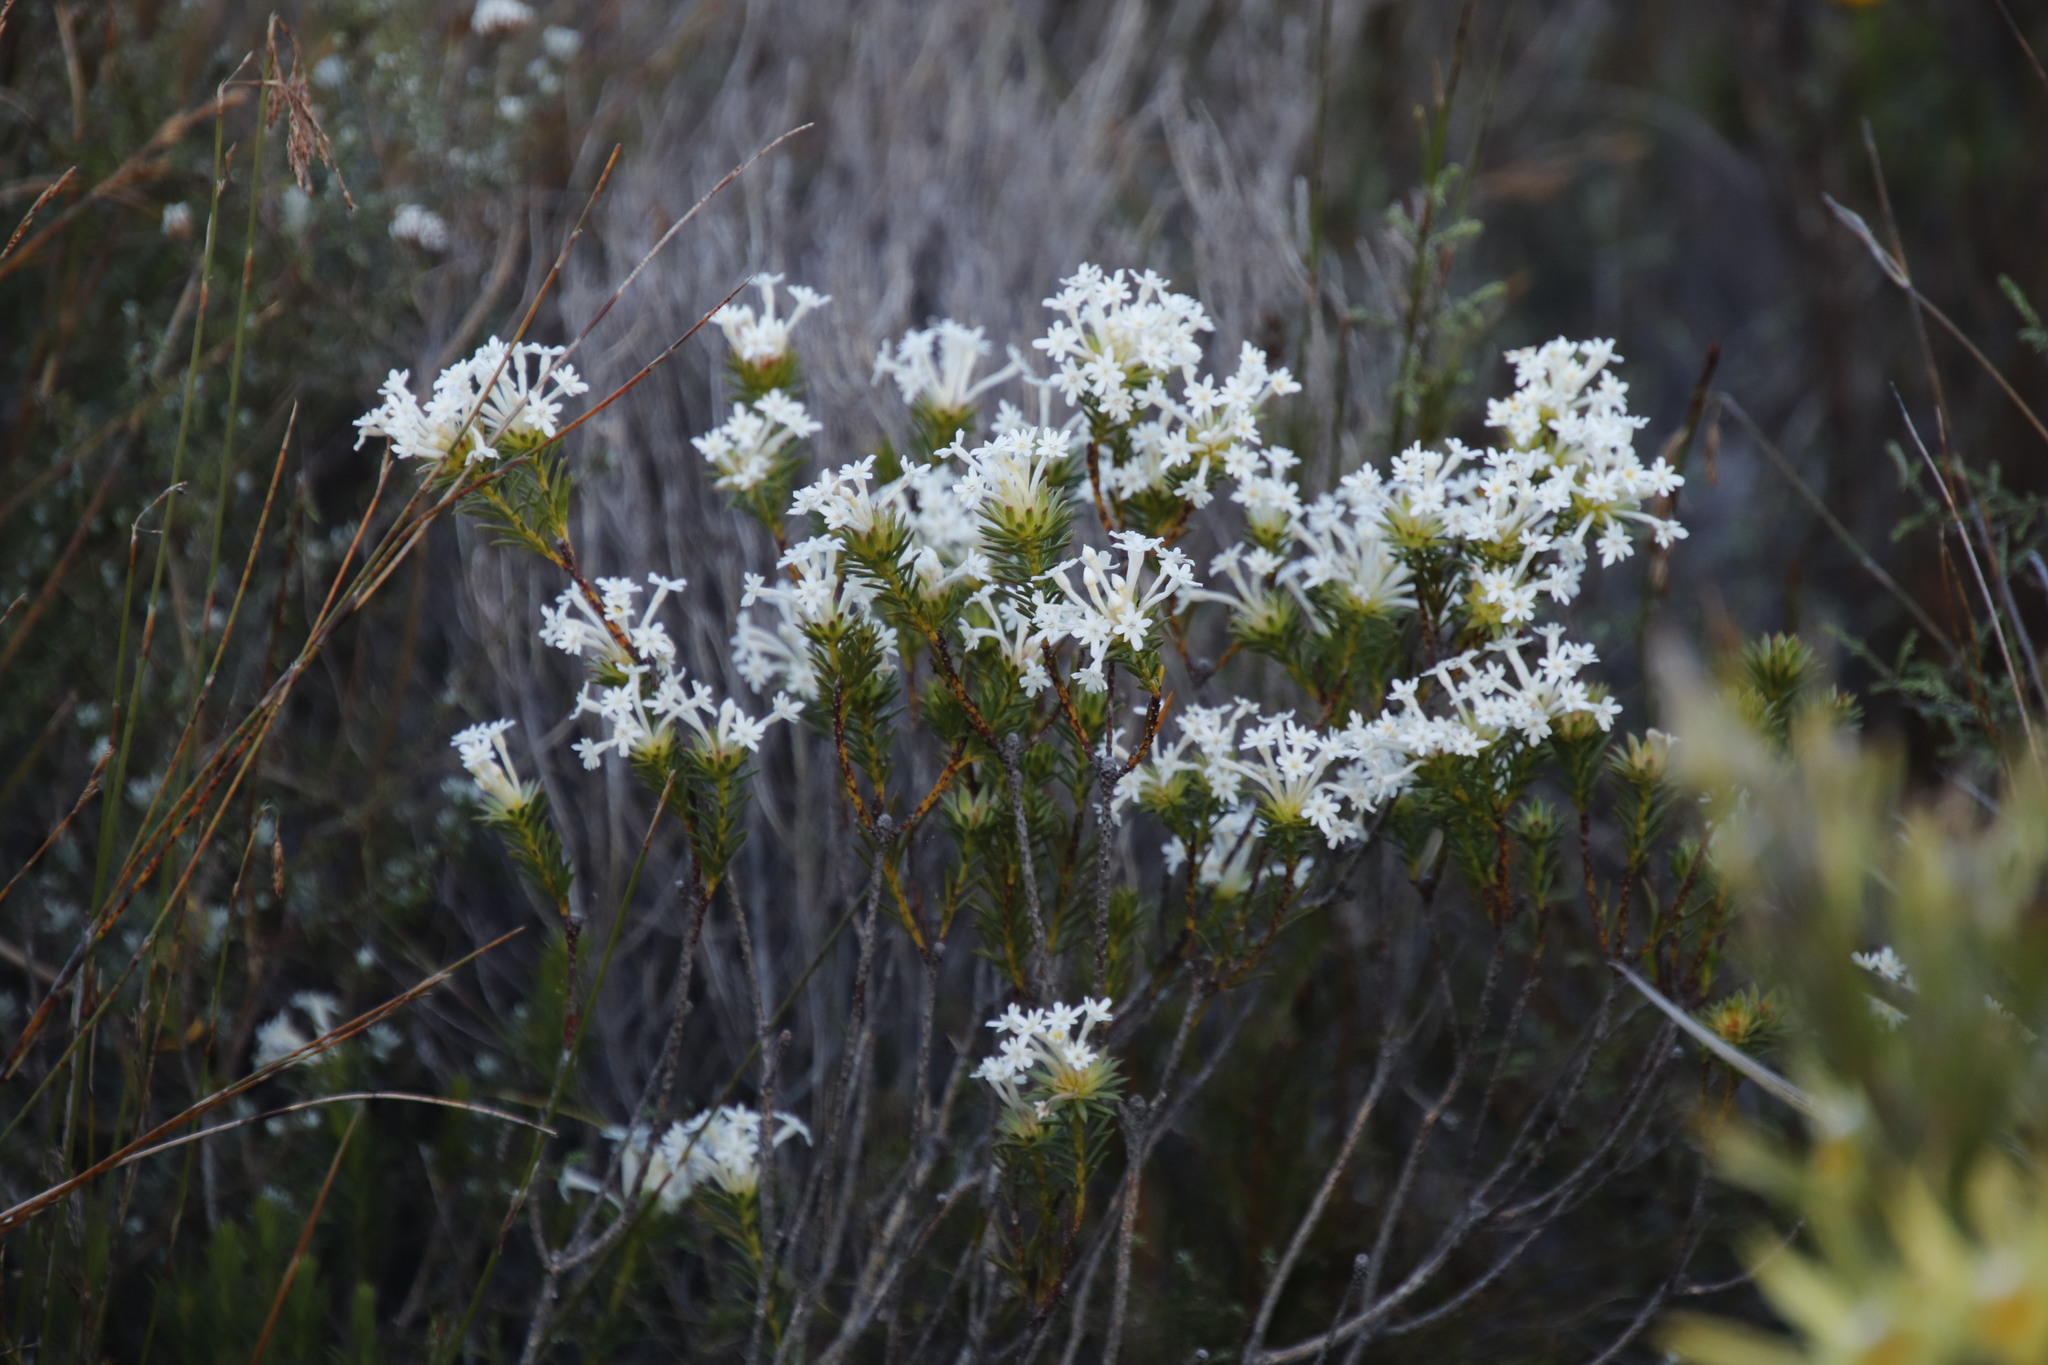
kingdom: Plantae
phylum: Tracheophyta
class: Magnoliopsida
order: Malvales
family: Thymelaeaceae
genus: Gnidia
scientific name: Gnidia pinifolia
